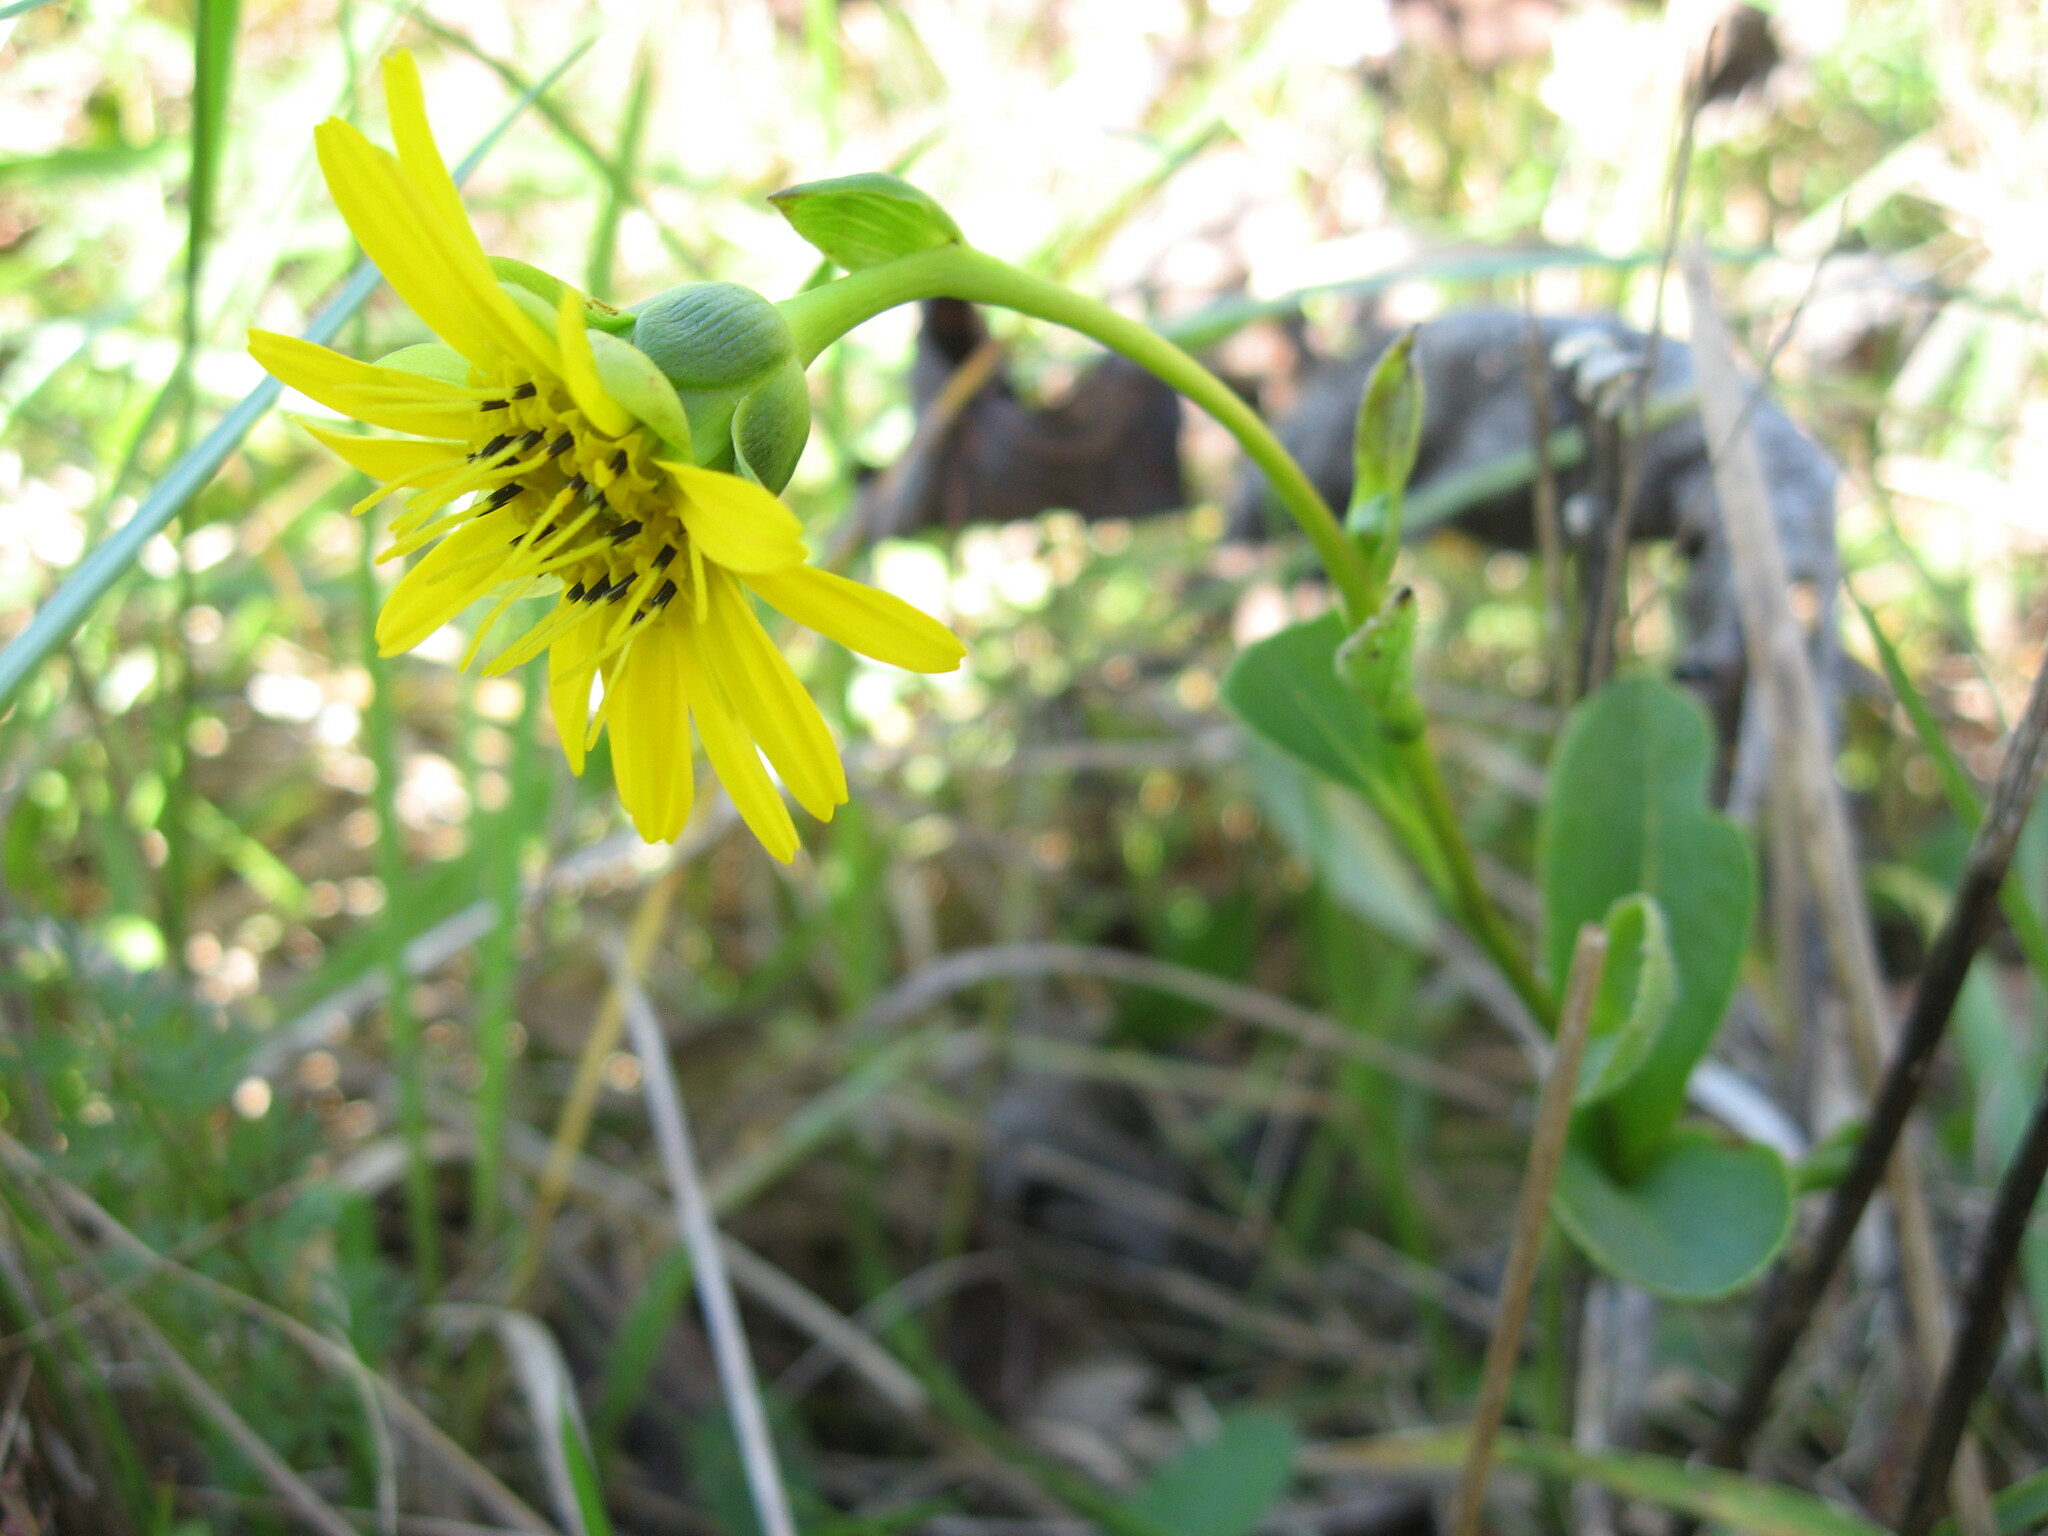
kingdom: Plantae
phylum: Tracheophyta
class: Magnoliopsida
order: Asterales
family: Asteraceae
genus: Silphium
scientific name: Silphium terebinthinaceum
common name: Basal-leaf rosinweed
